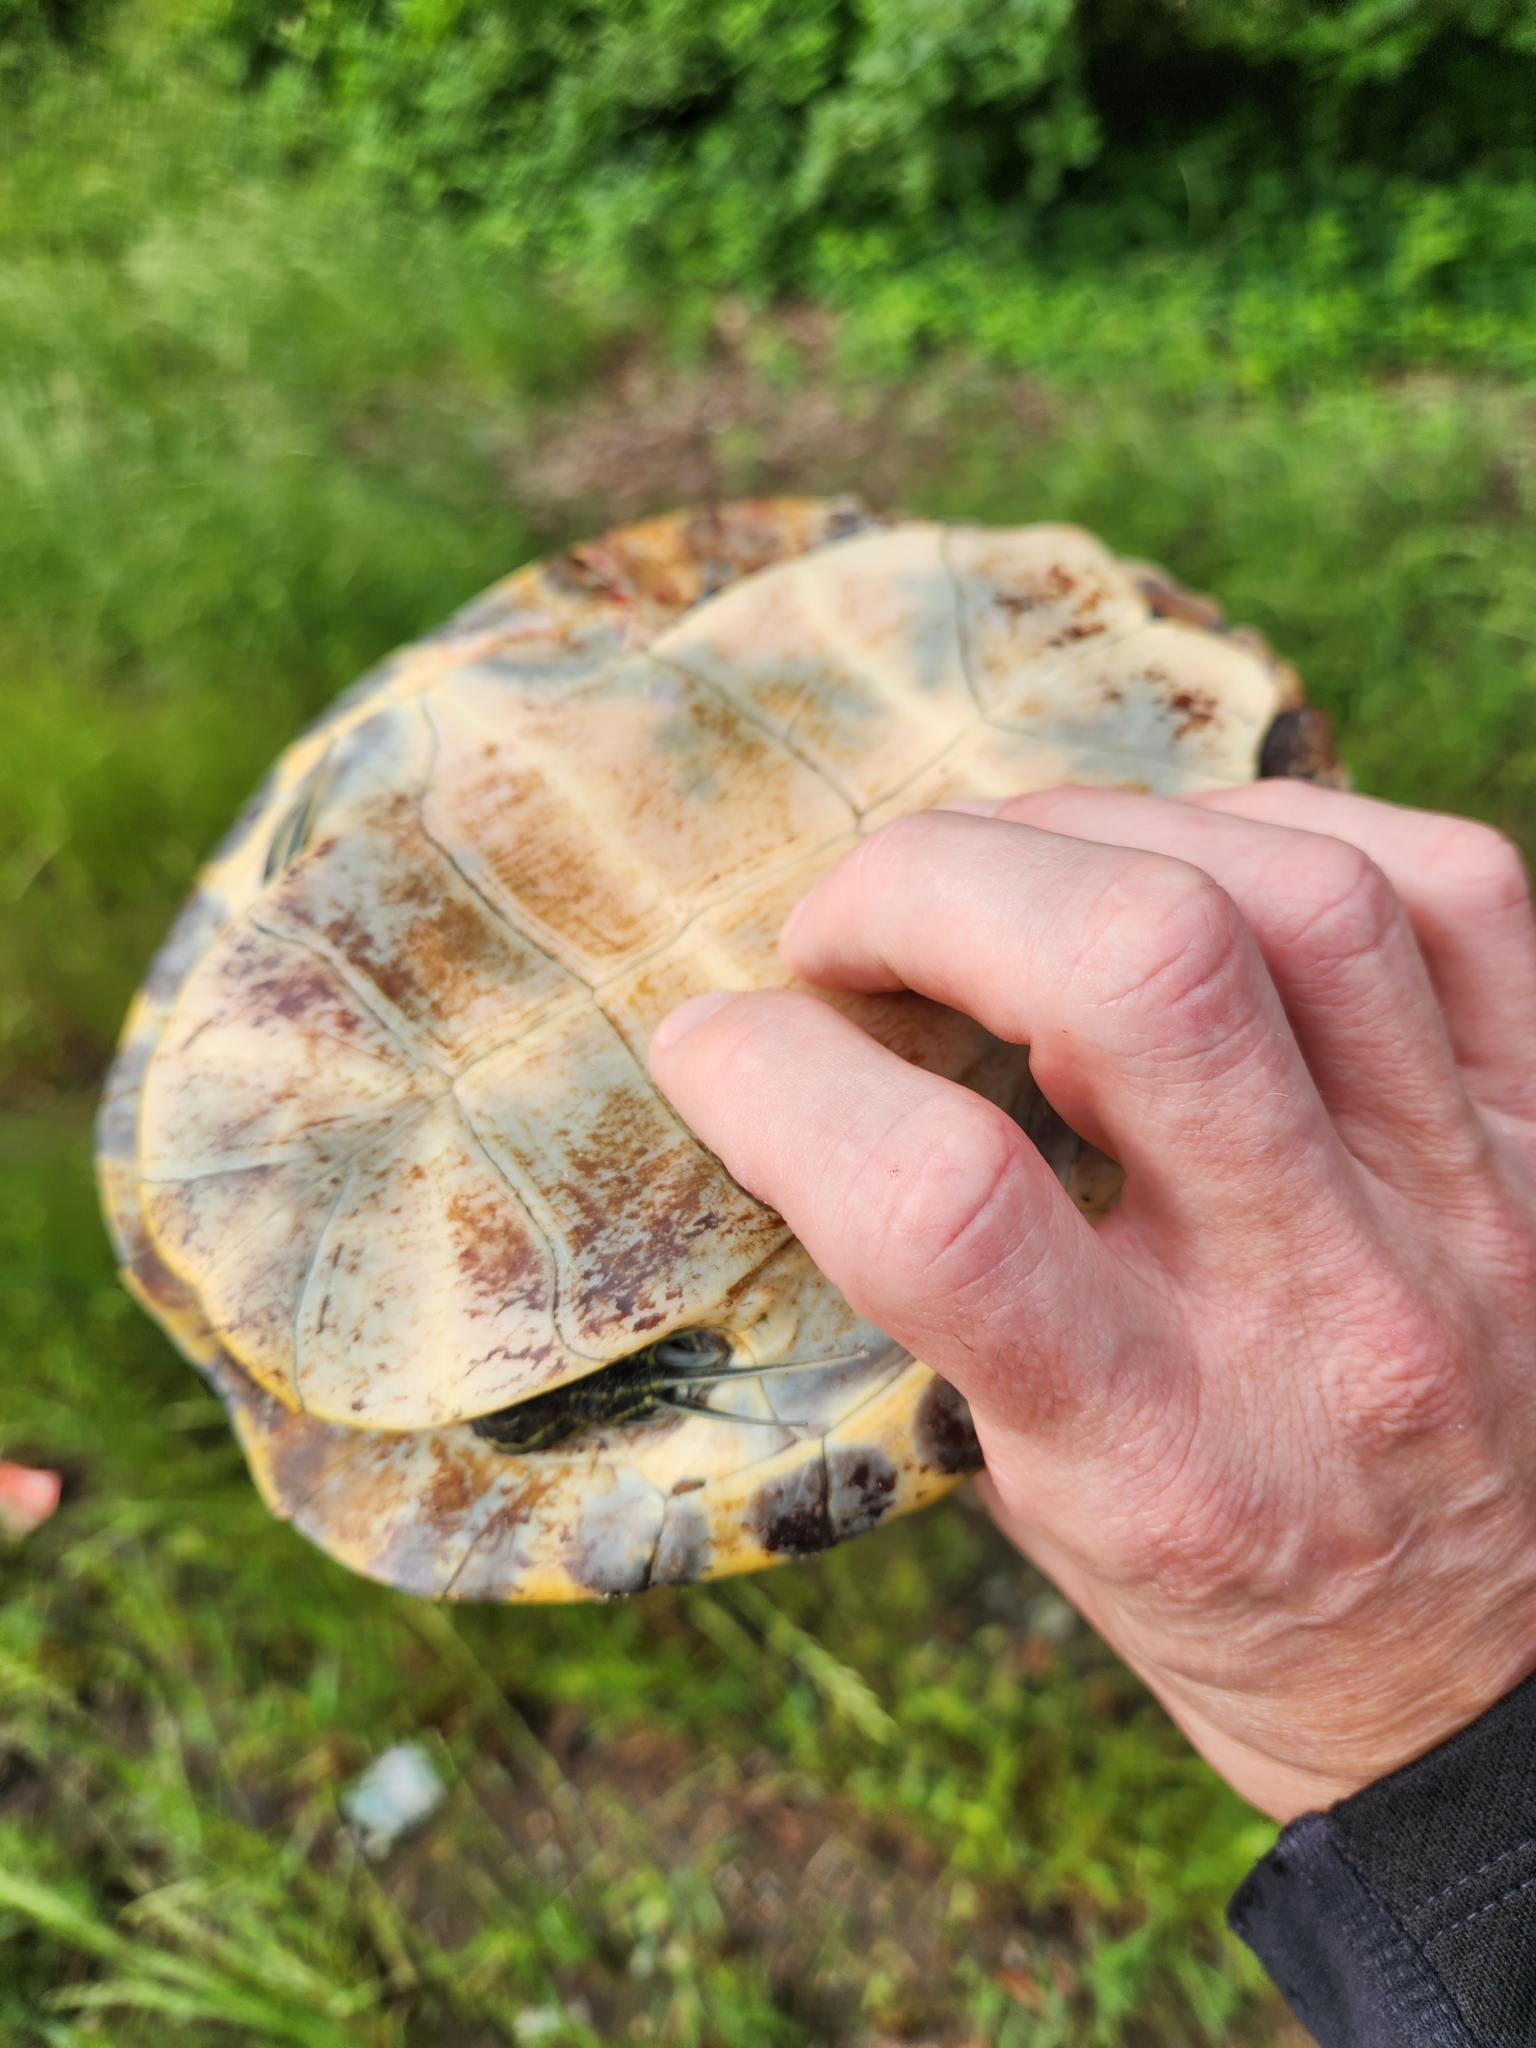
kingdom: Animalia
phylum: Chordata
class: Testudines
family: Emydidae
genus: Pseudemys
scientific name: Pseudemys concinna
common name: Eastern river cooter
